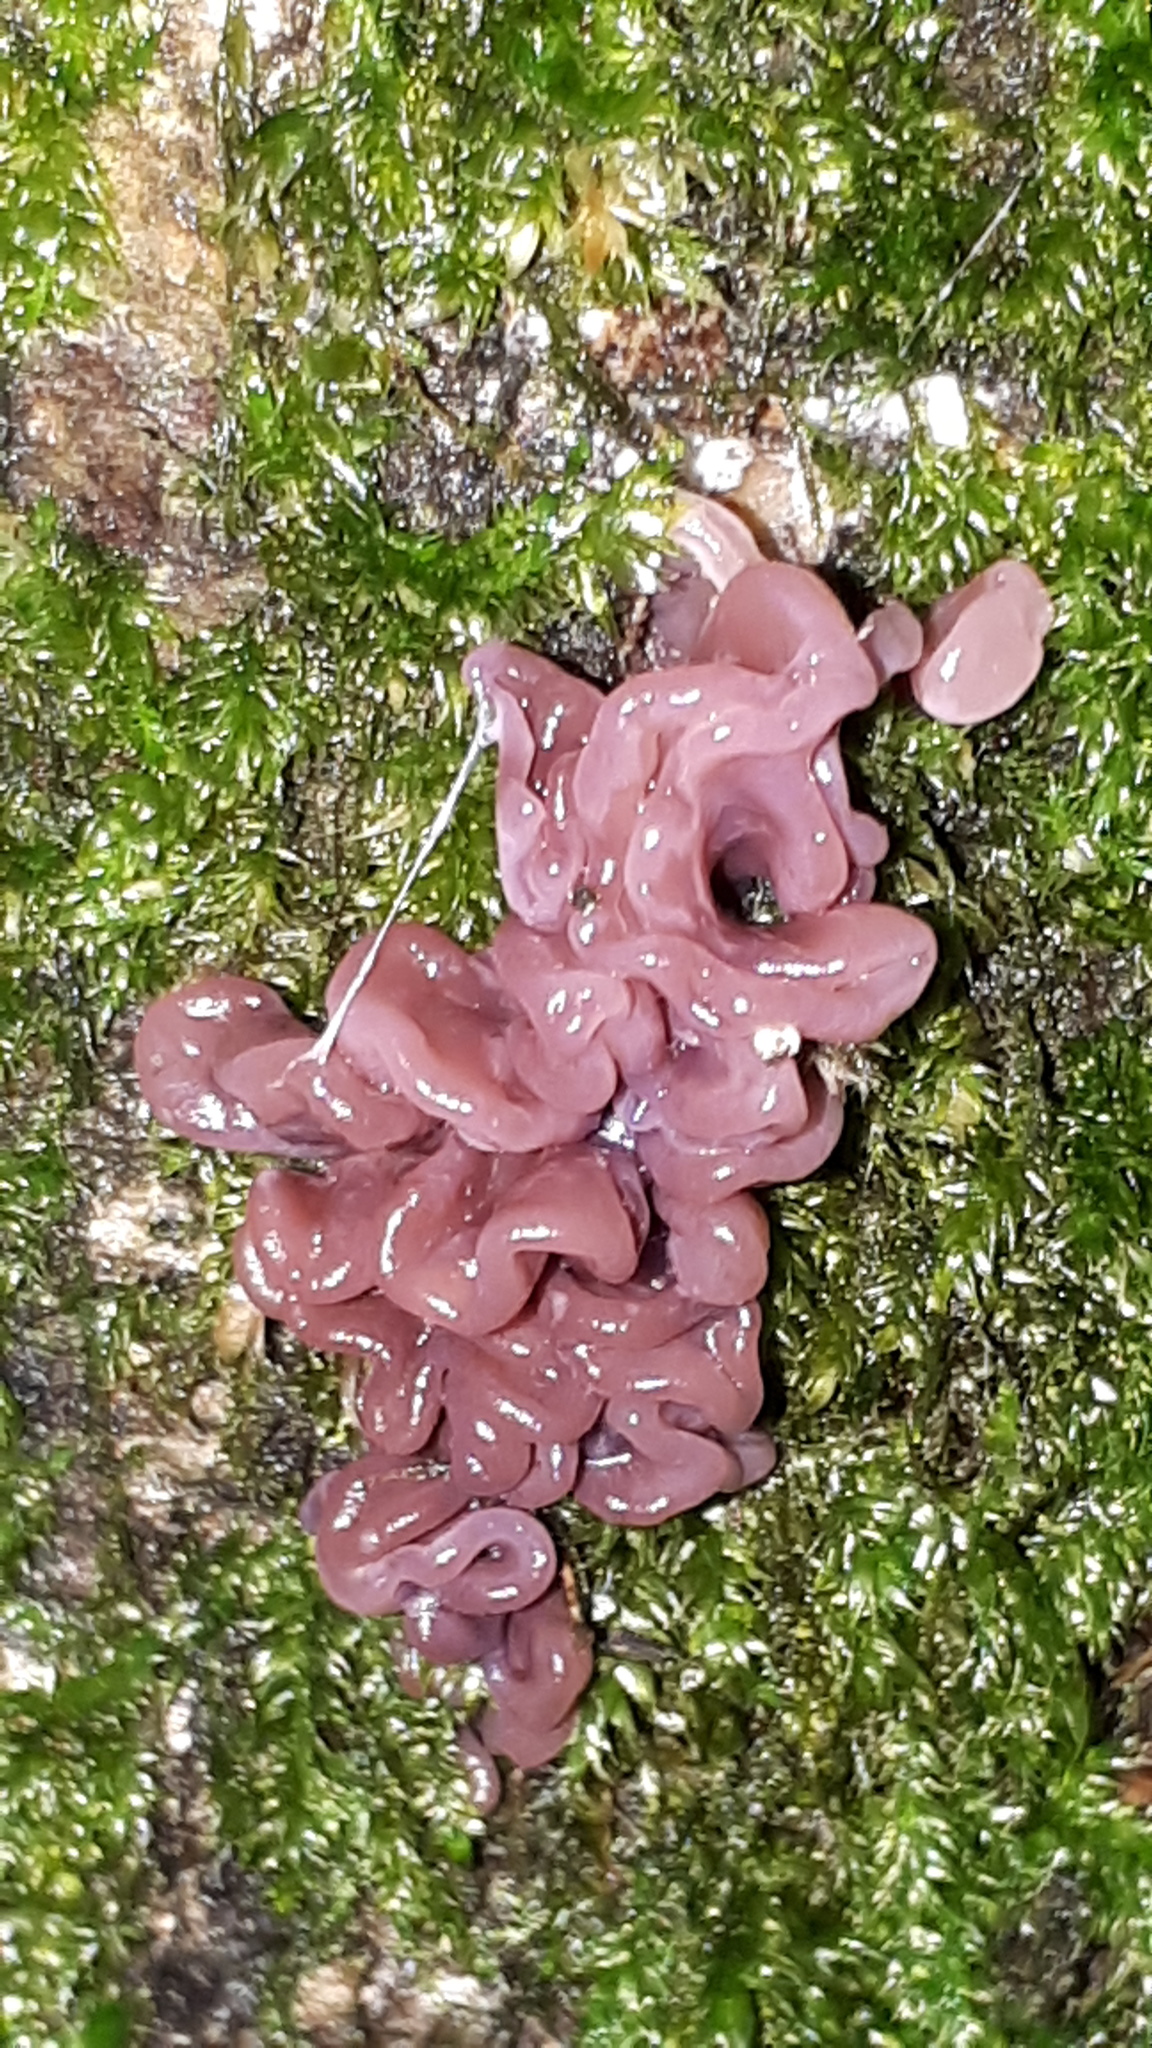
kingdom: Fungi
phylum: Ascomycota
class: Leotiomycetes
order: Helotiales
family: Gelatinodiscaceae
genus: Ascocoryne
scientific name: Ascocoryne sarcoides
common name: Purple jellydisc
